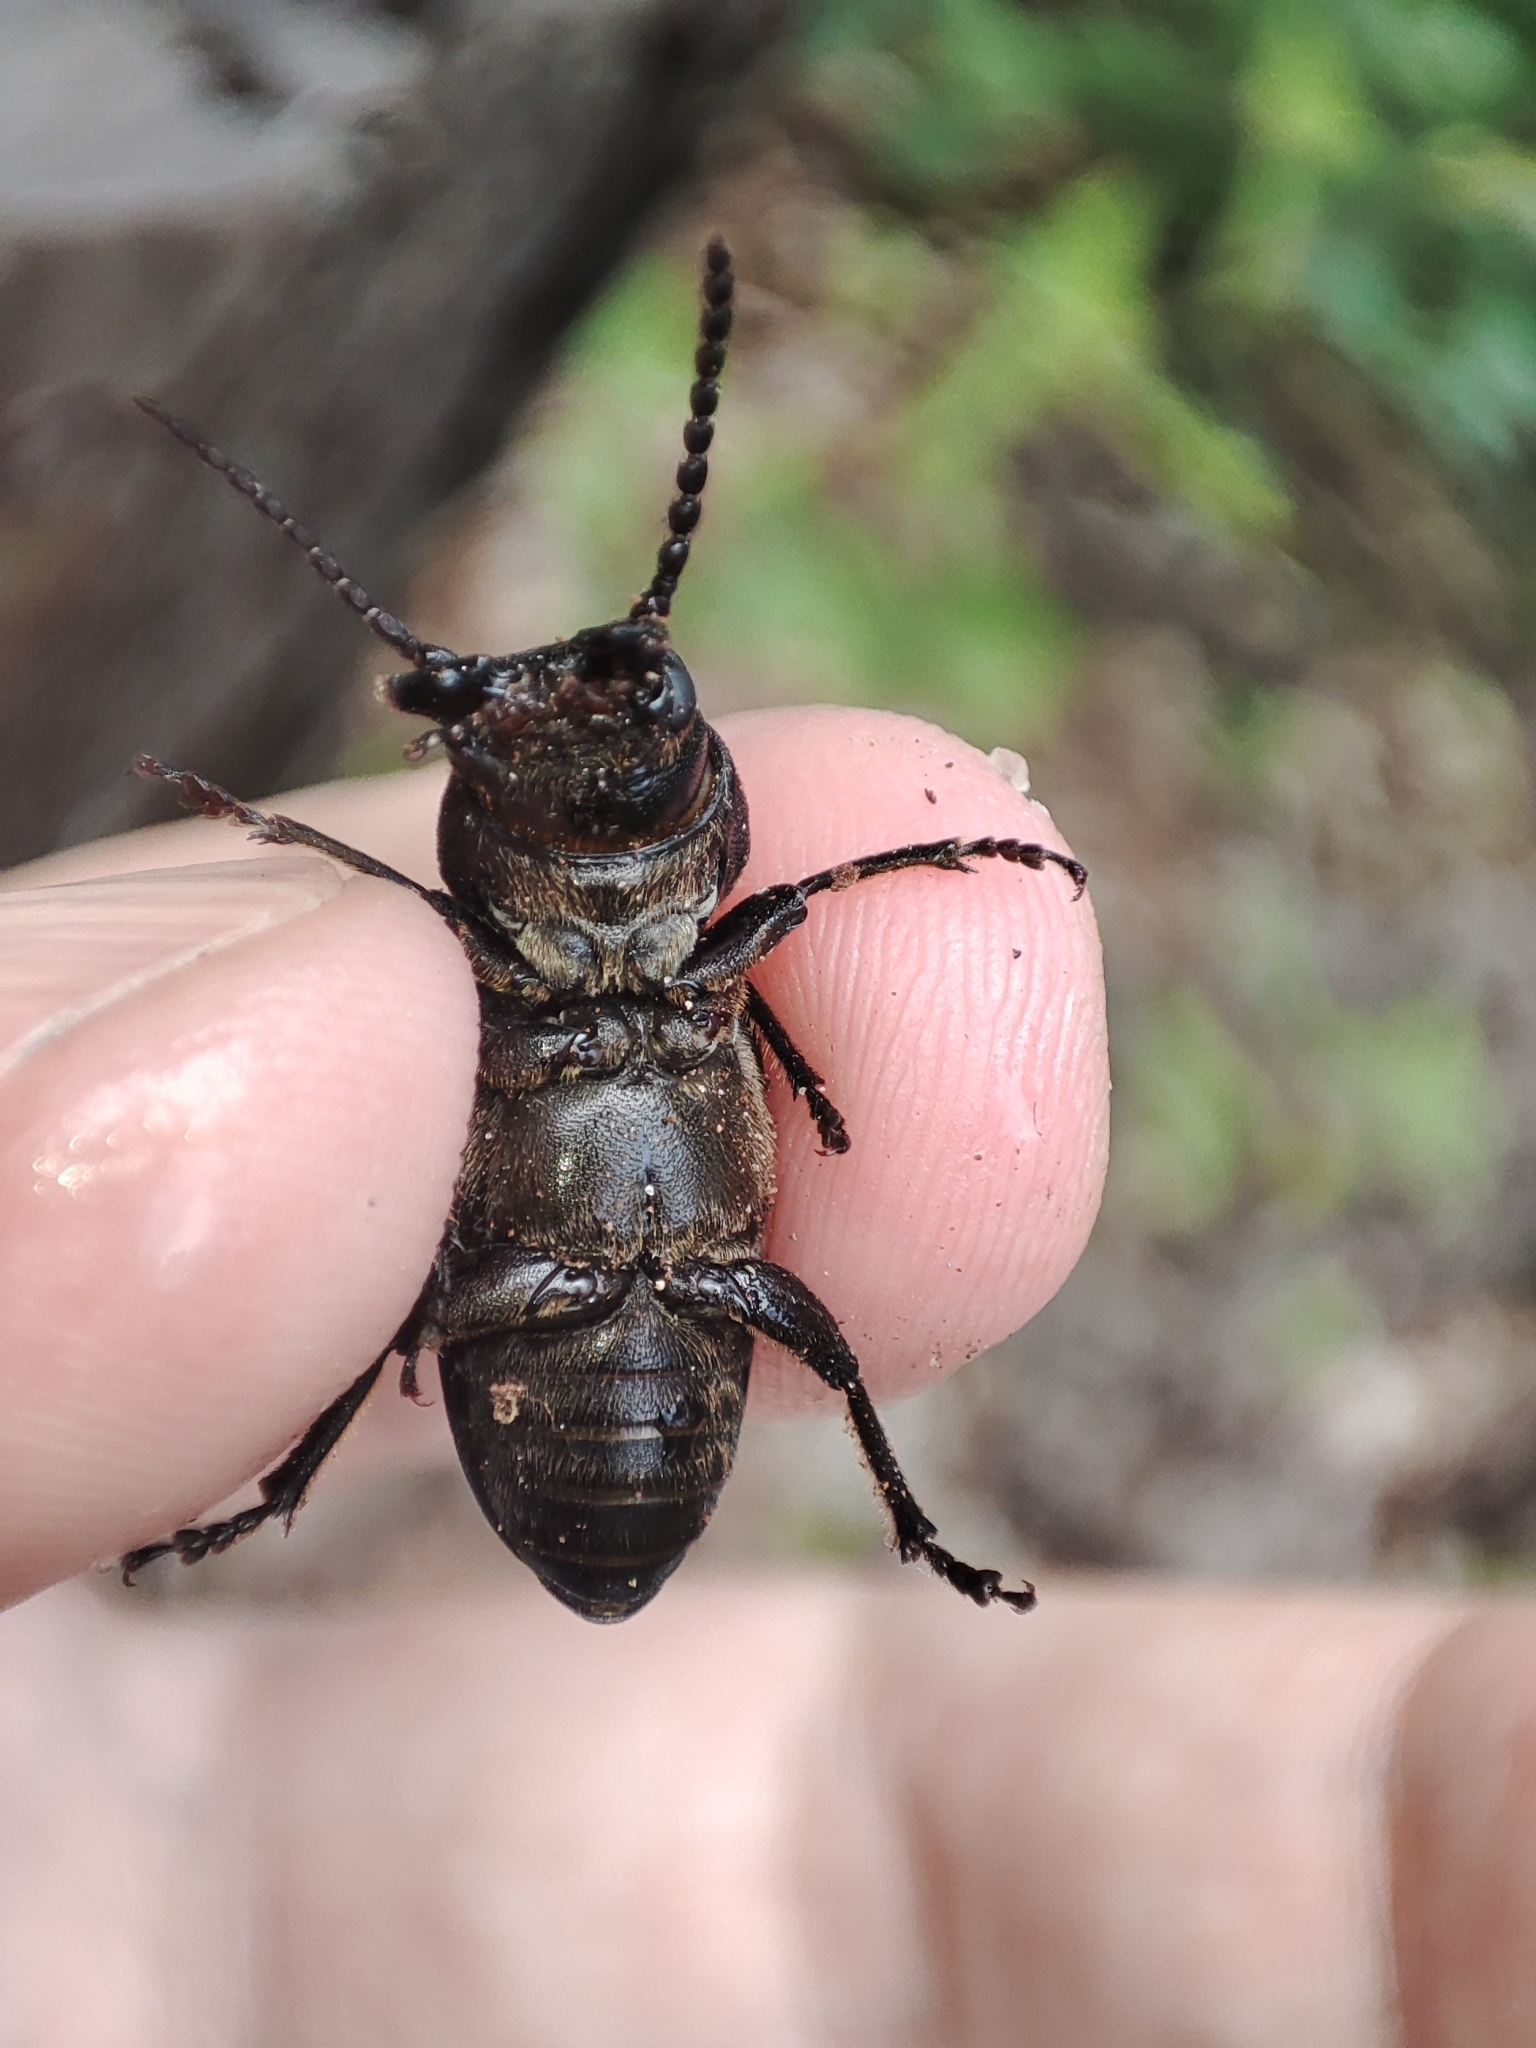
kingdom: Animalia
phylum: Arthropoda
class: Insecta
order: Coleoptera
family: Cerambycidae
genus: Spondylis
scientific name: Spondylis buprestoides
